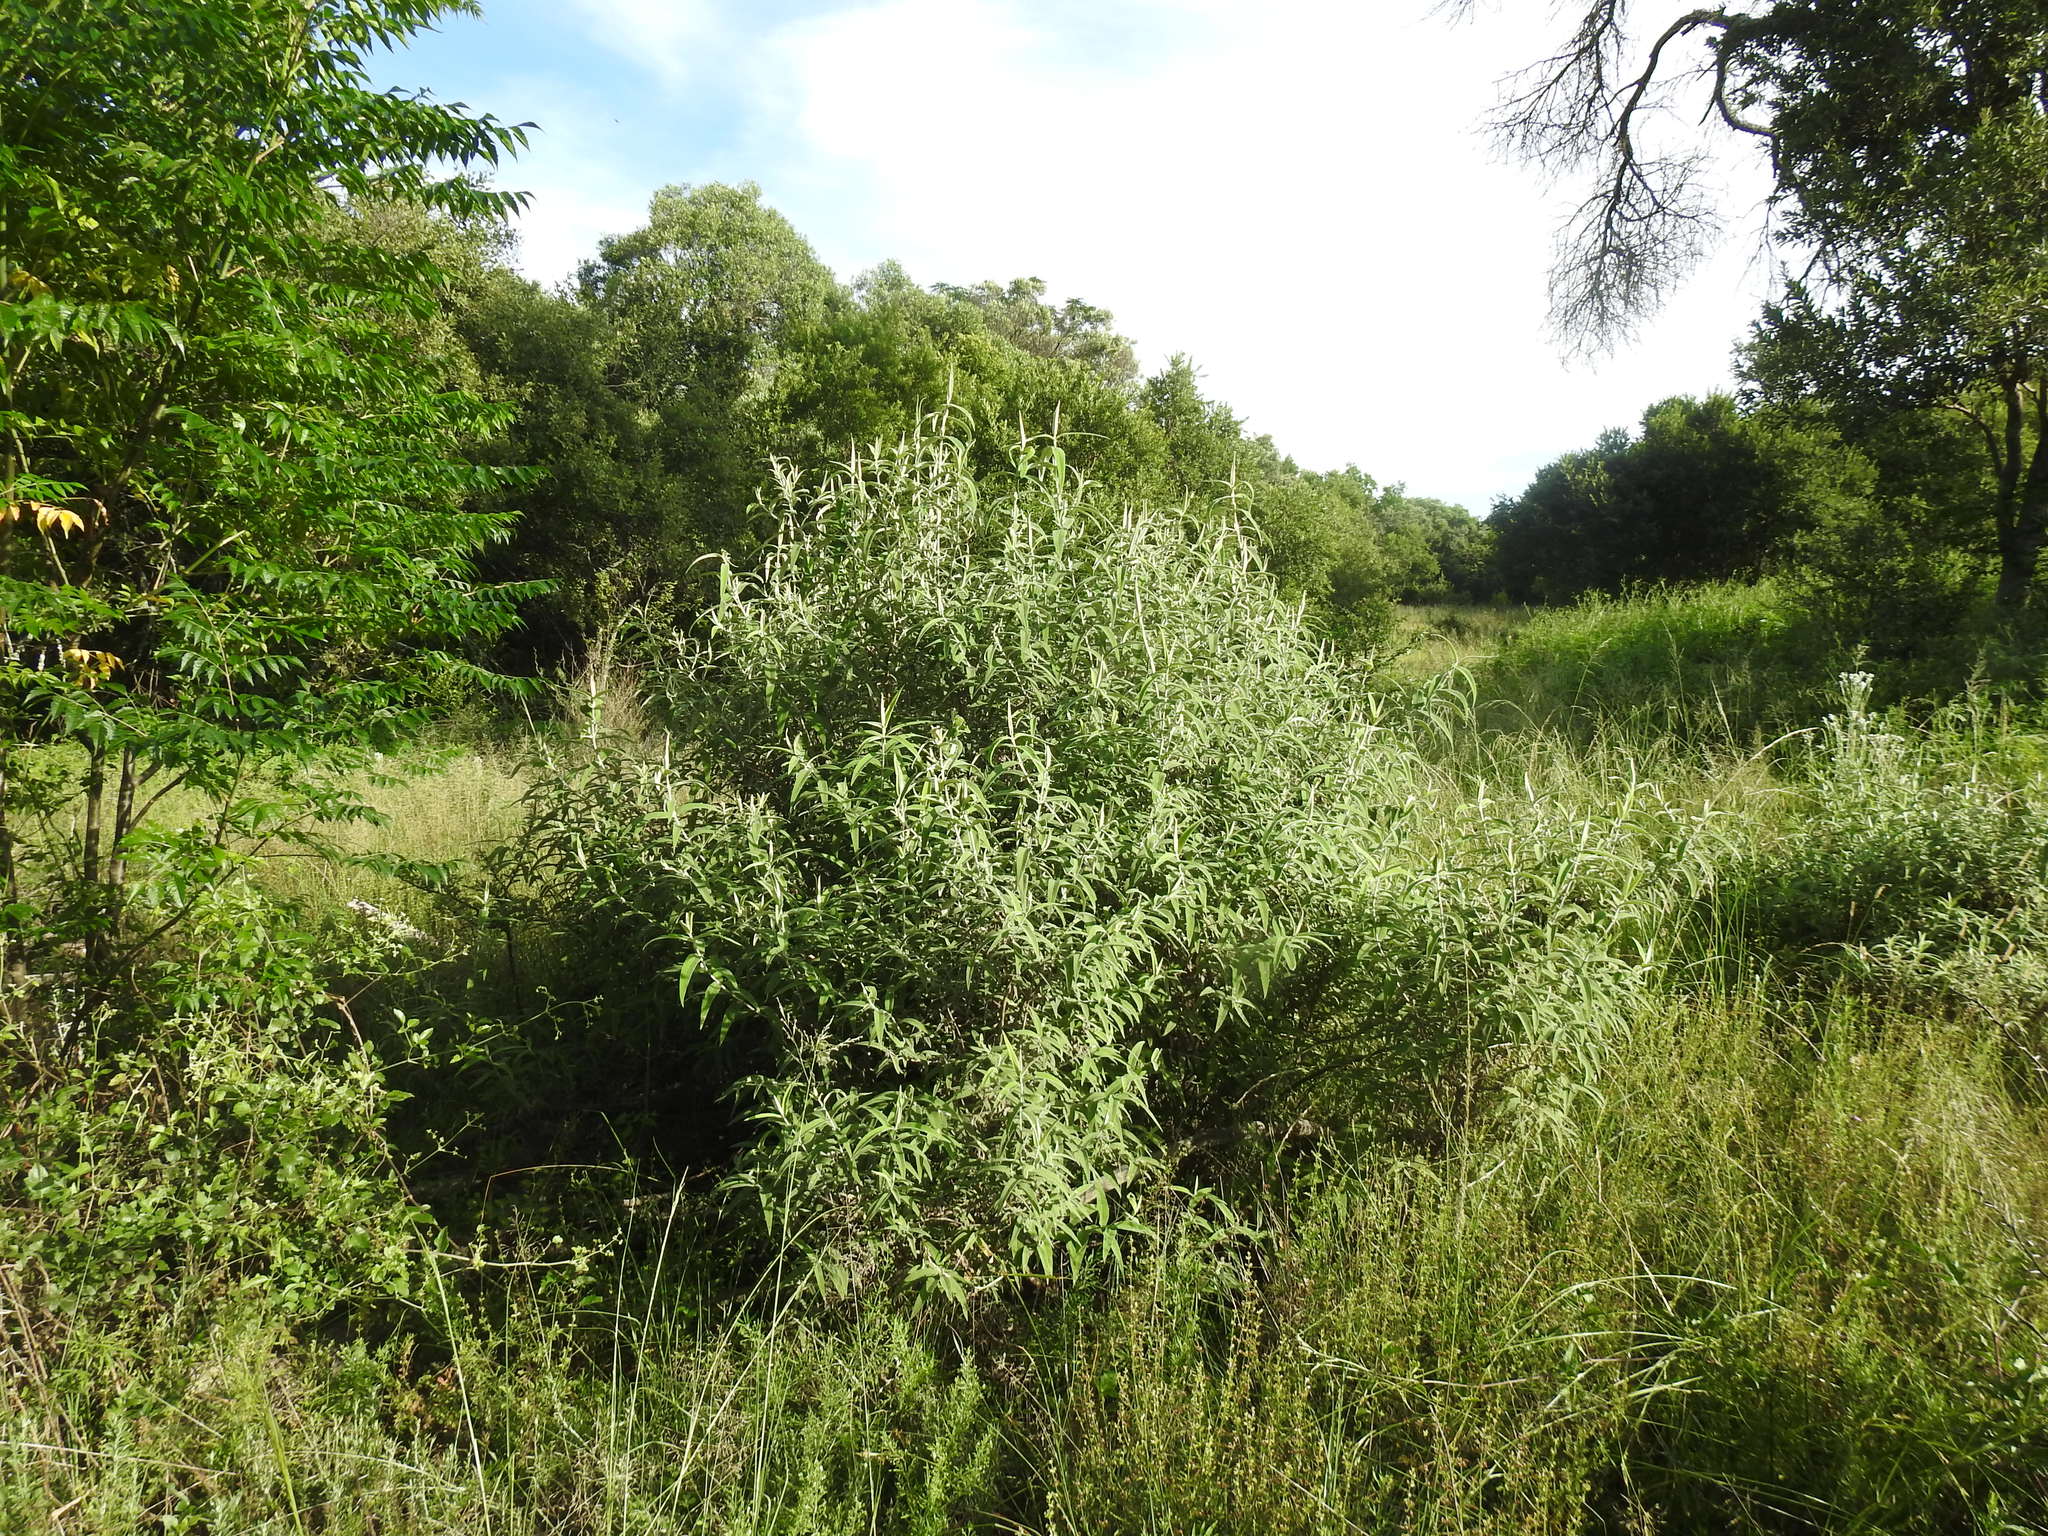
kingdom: Plantae
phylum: Tracheophyta
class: Magnoliopsida
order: Lamiales
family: Scrophulariaceae
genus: Buddleja
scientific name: Buddleja salviifolia
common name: Sagewood
